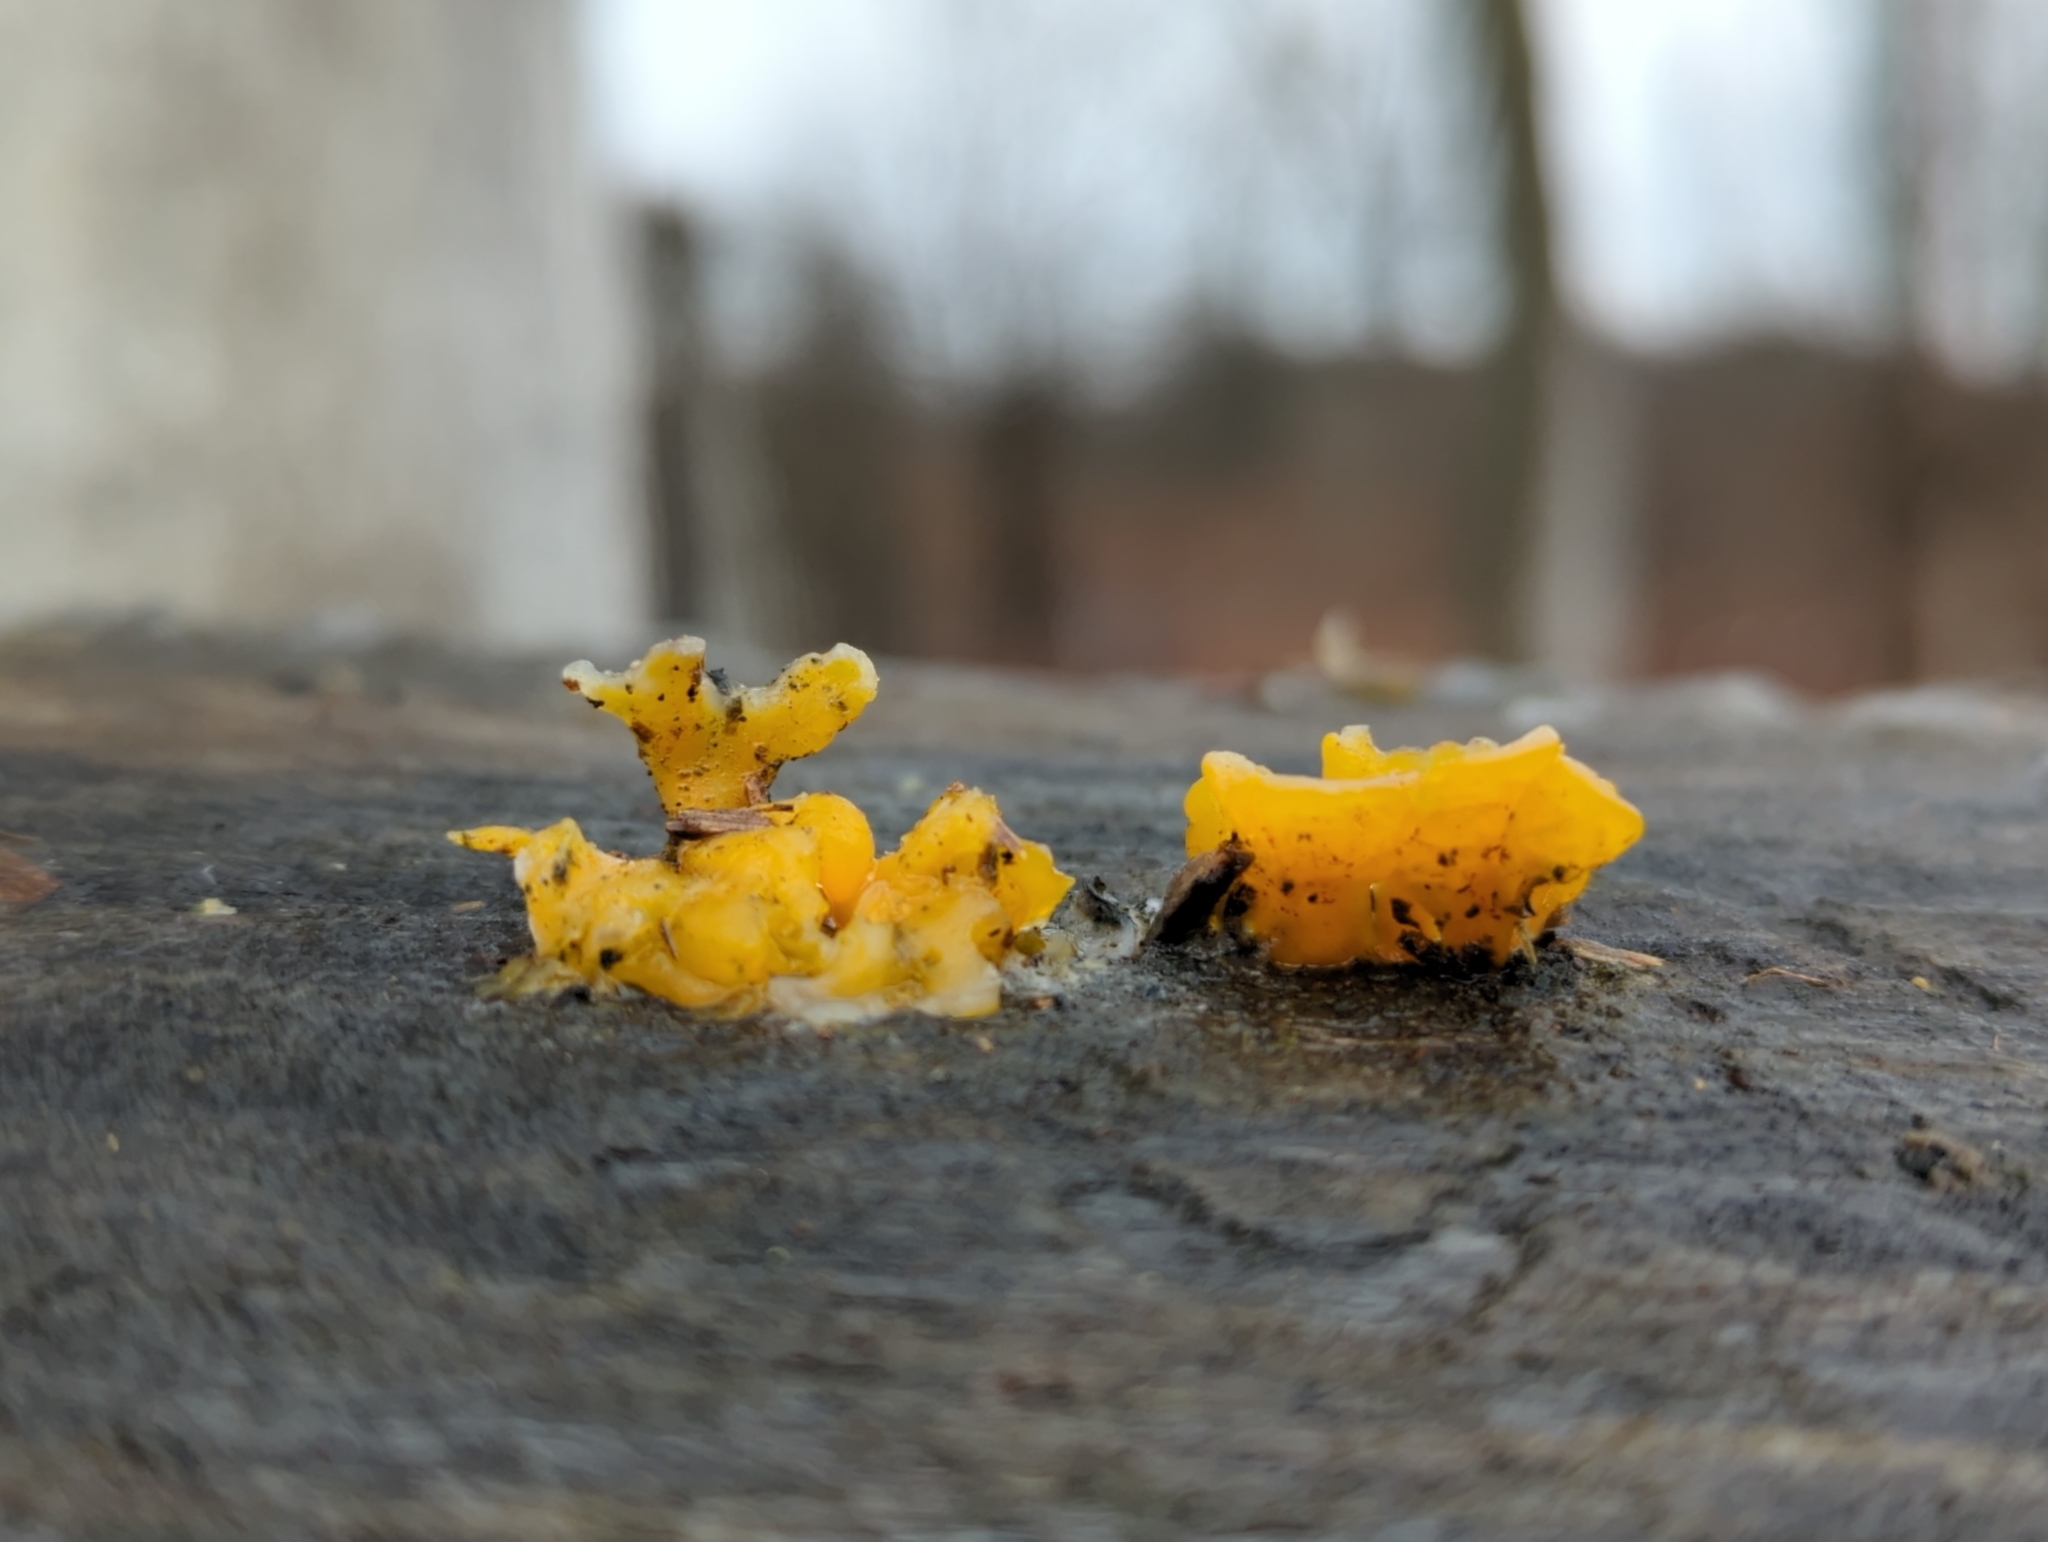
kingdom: Fungi
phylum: Basidiomycota
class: Dacrymycetes
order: Dacrymycetales
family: Dacrymycetaceae
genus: Dacrymyces
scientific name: Dacrymyces spathularius
